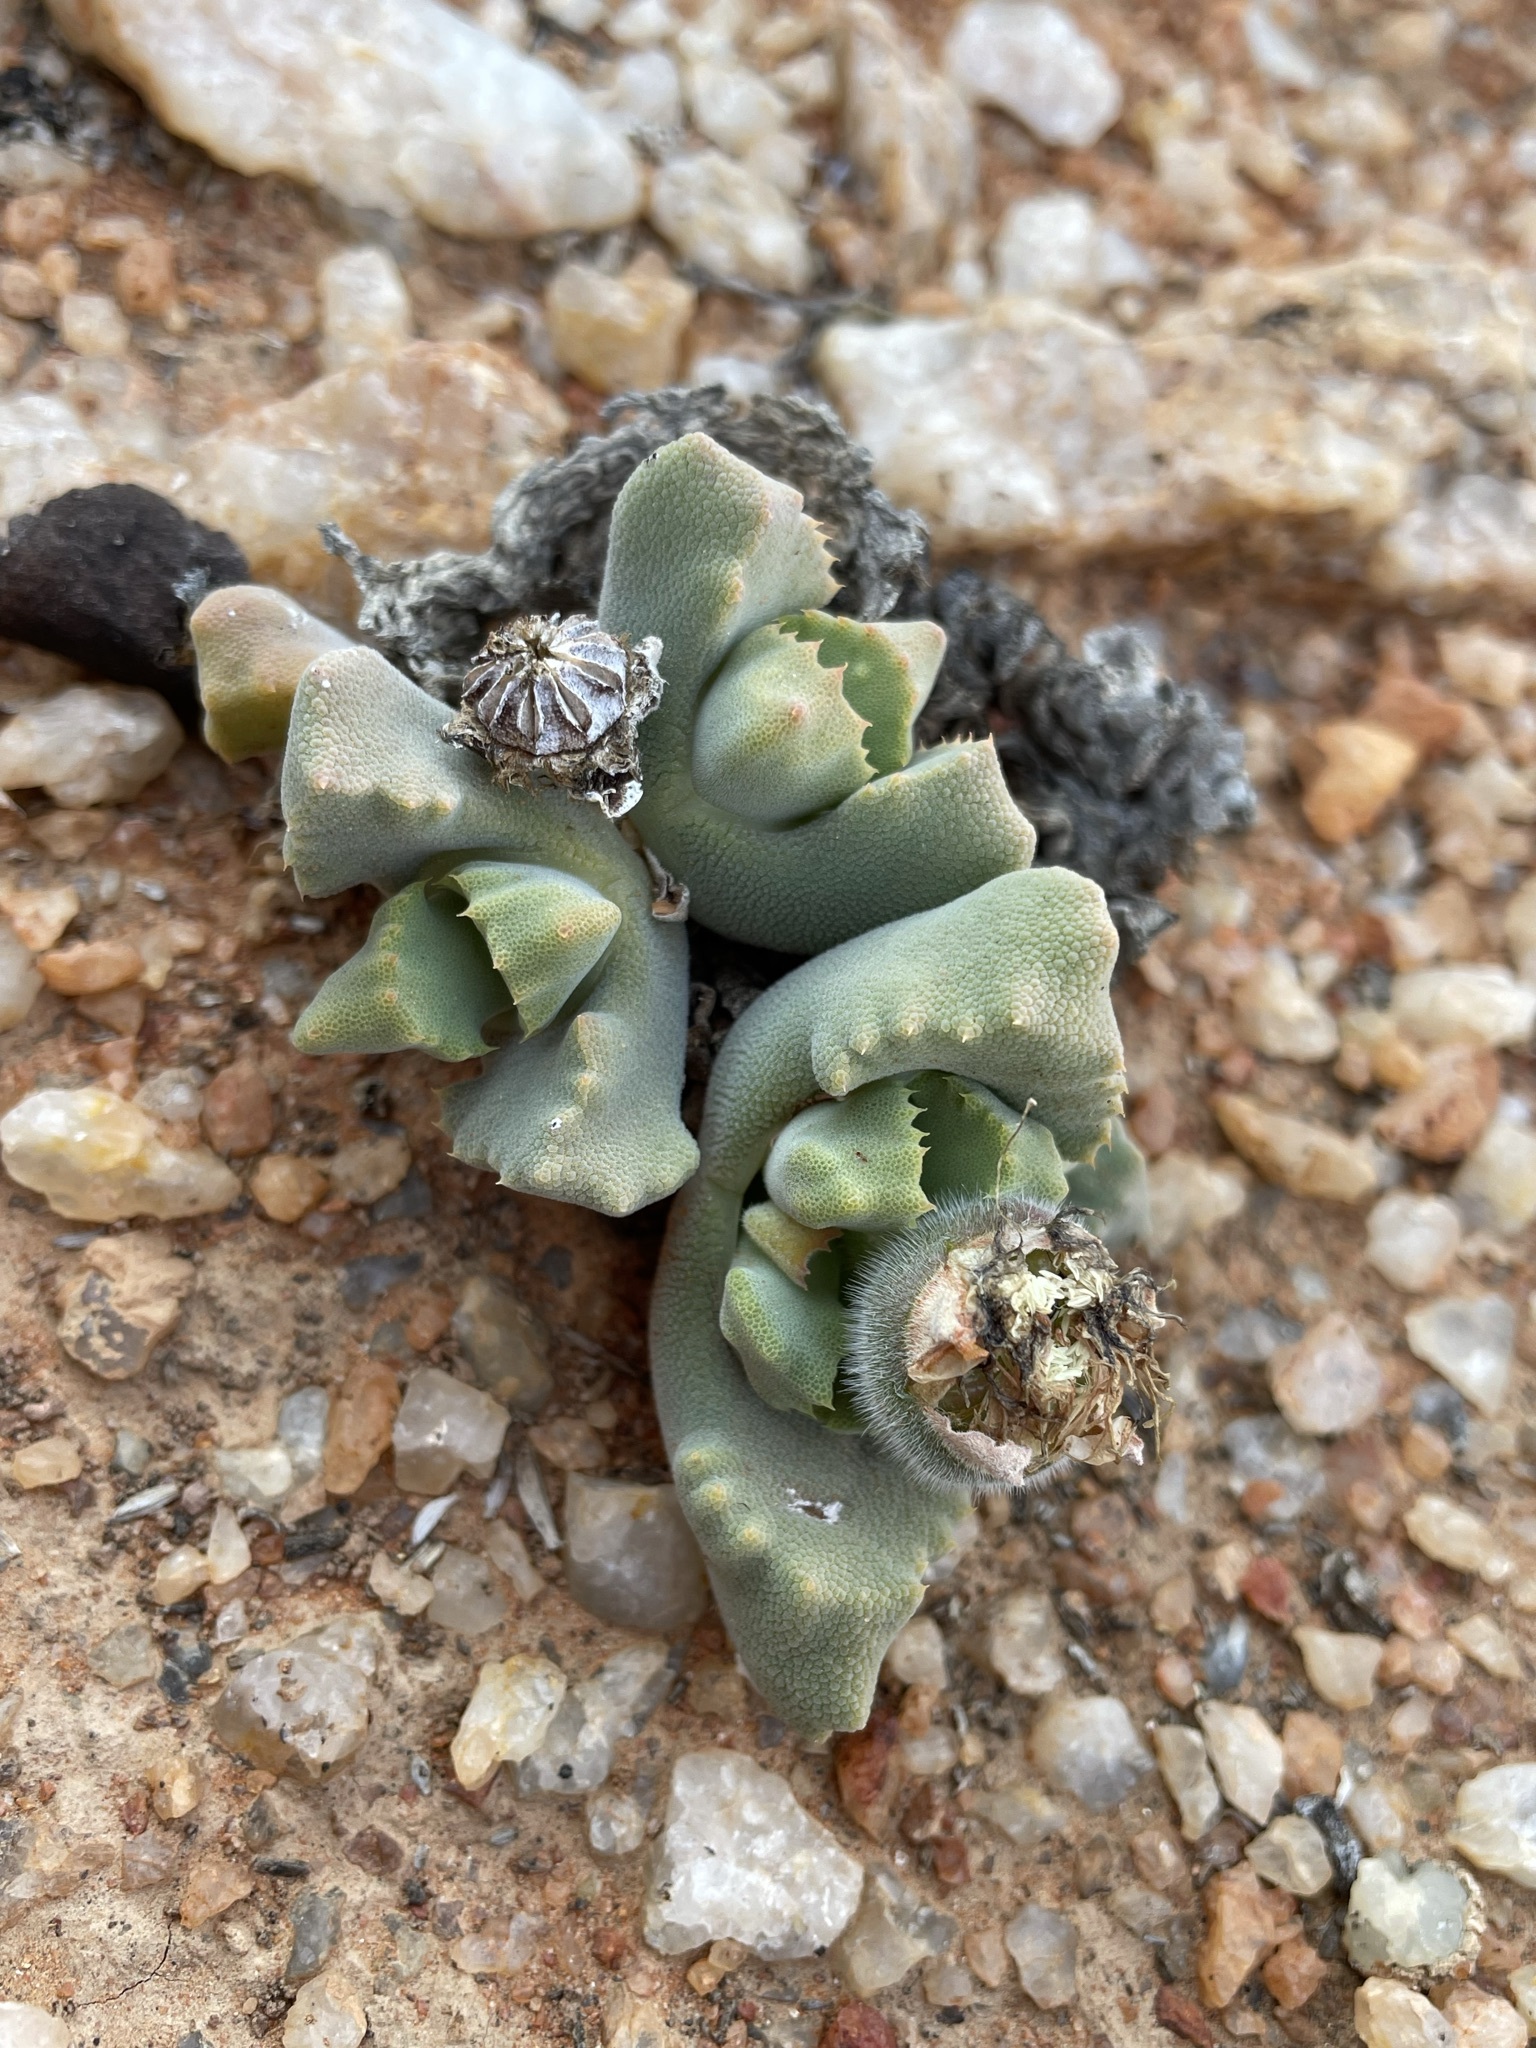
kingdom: Plantae
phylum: Tracheophyta
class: Magnoliopsida
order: Caryophyllales
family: Aizoaceae
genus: Cheiridopsis
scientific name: Cheiridopsis nana
